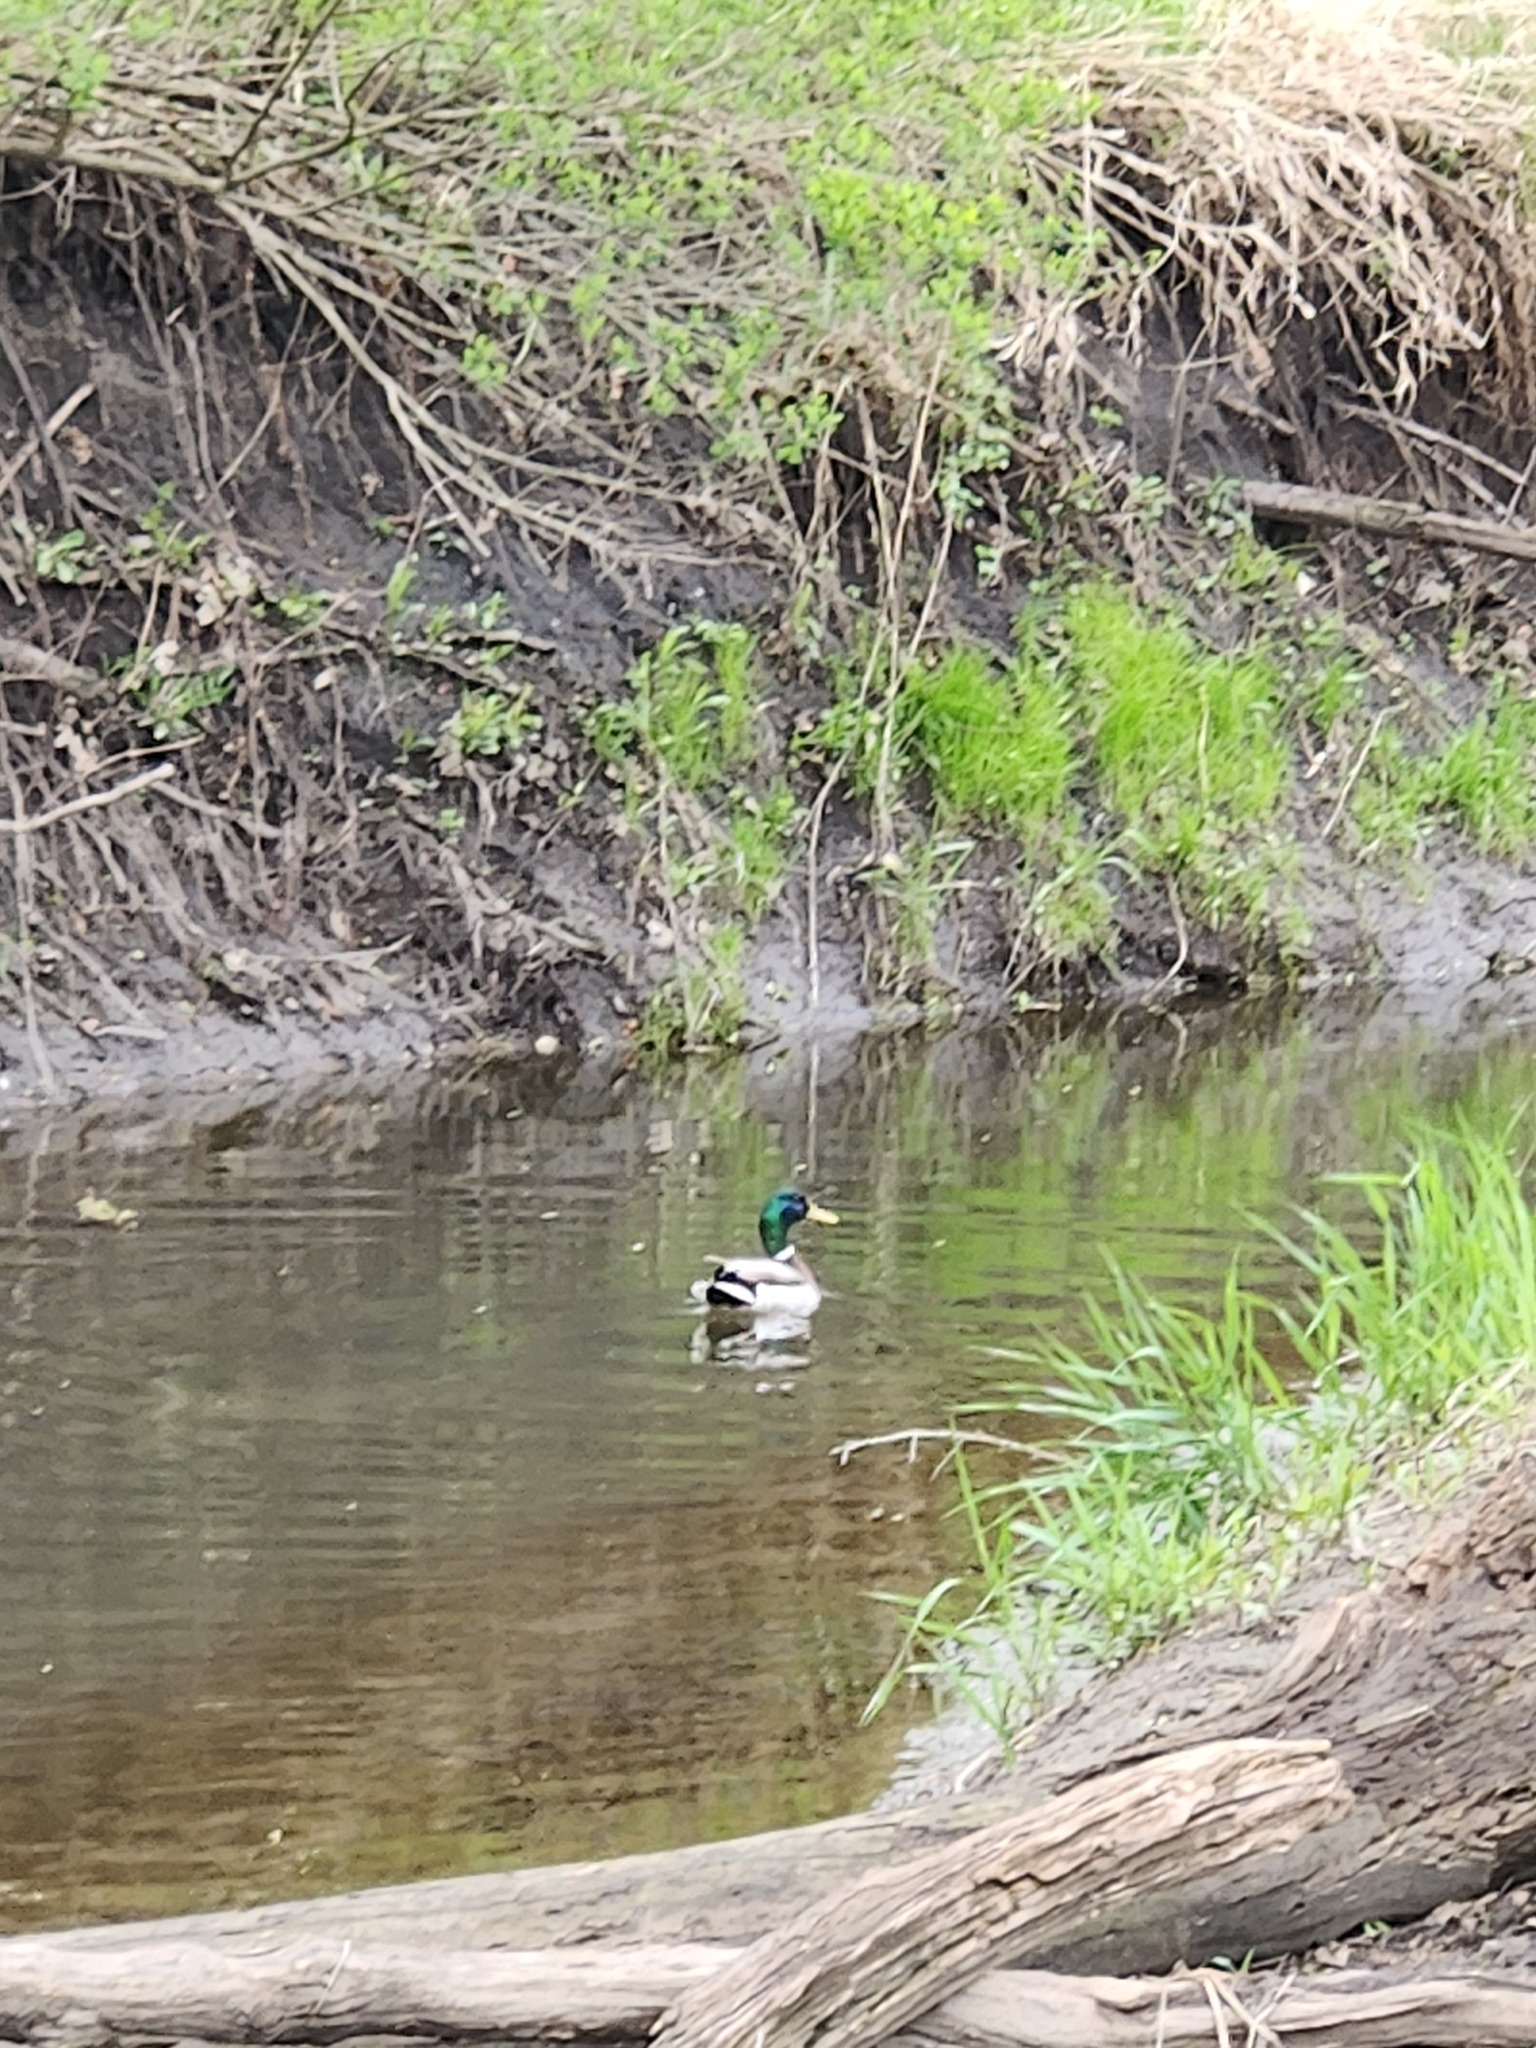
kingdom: Animalia
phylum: Chordata
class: Aves
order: Anseriformes
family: Anatidae
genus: Anas
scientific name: Anas platyrhynchos
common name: Mallard
